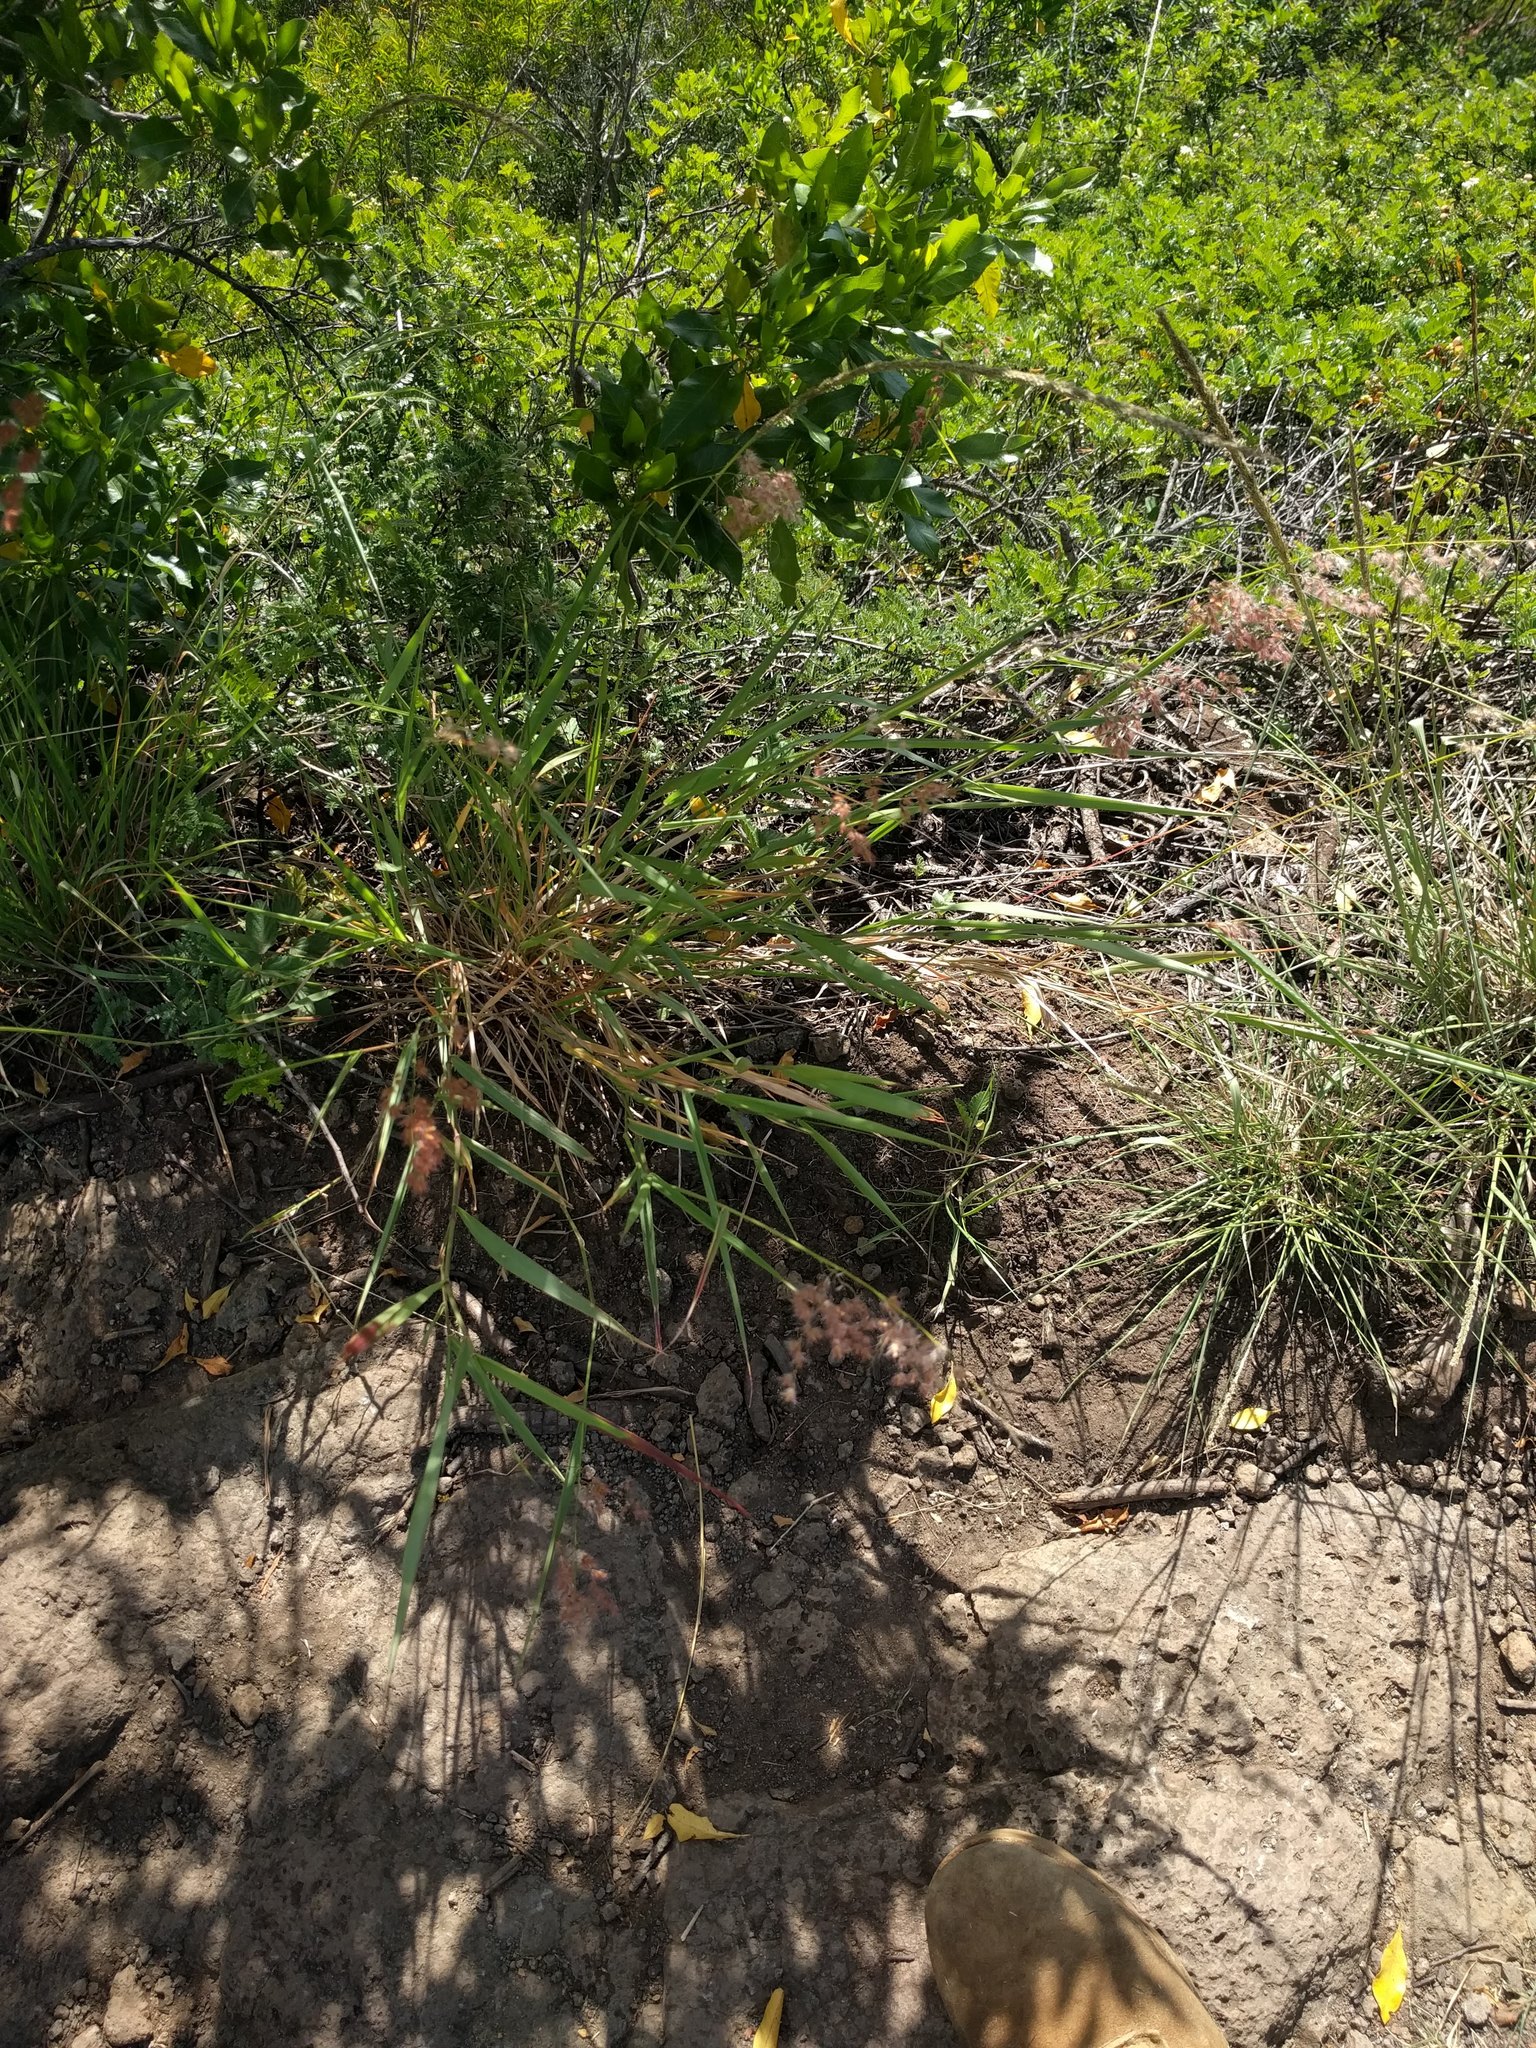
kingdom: Plantae
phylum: Tracheophyta
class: Liliopsida
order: Poales
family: Poaceae
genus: Melinis
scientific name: Melinis repens
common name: Rose natal grass
